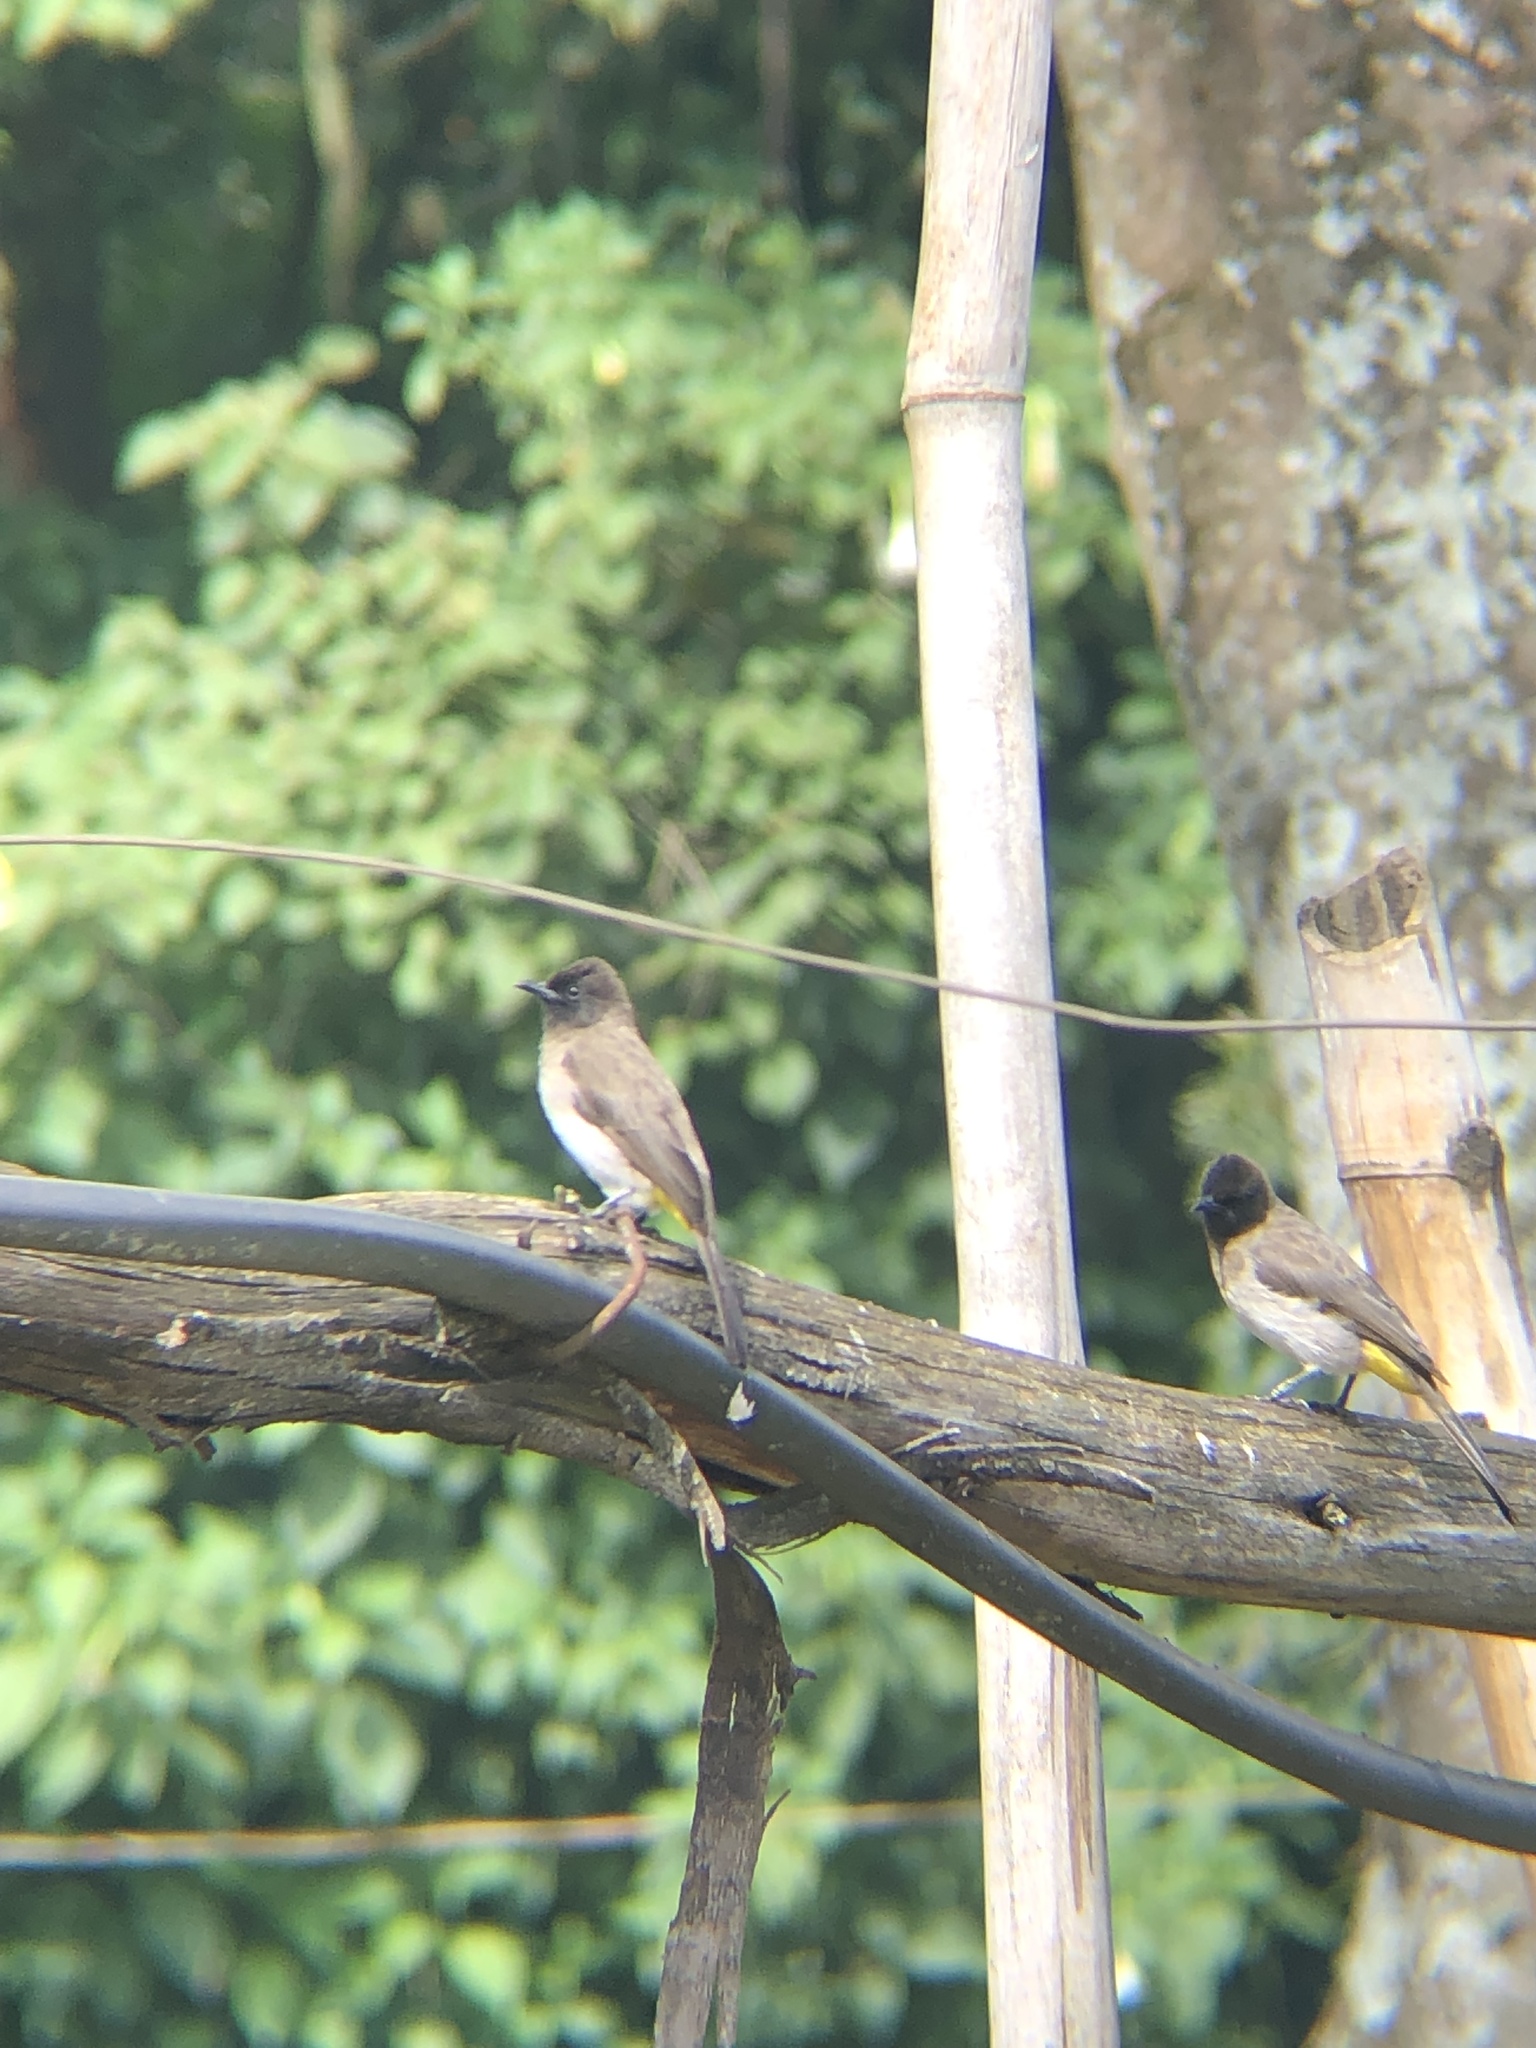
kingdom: Animalia
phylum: Chordata
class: Aves
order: Passeriformes
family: Pycnonotidae
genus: Pycnonotus
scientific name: Pycnonotus barbatus
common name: Common bulbul
